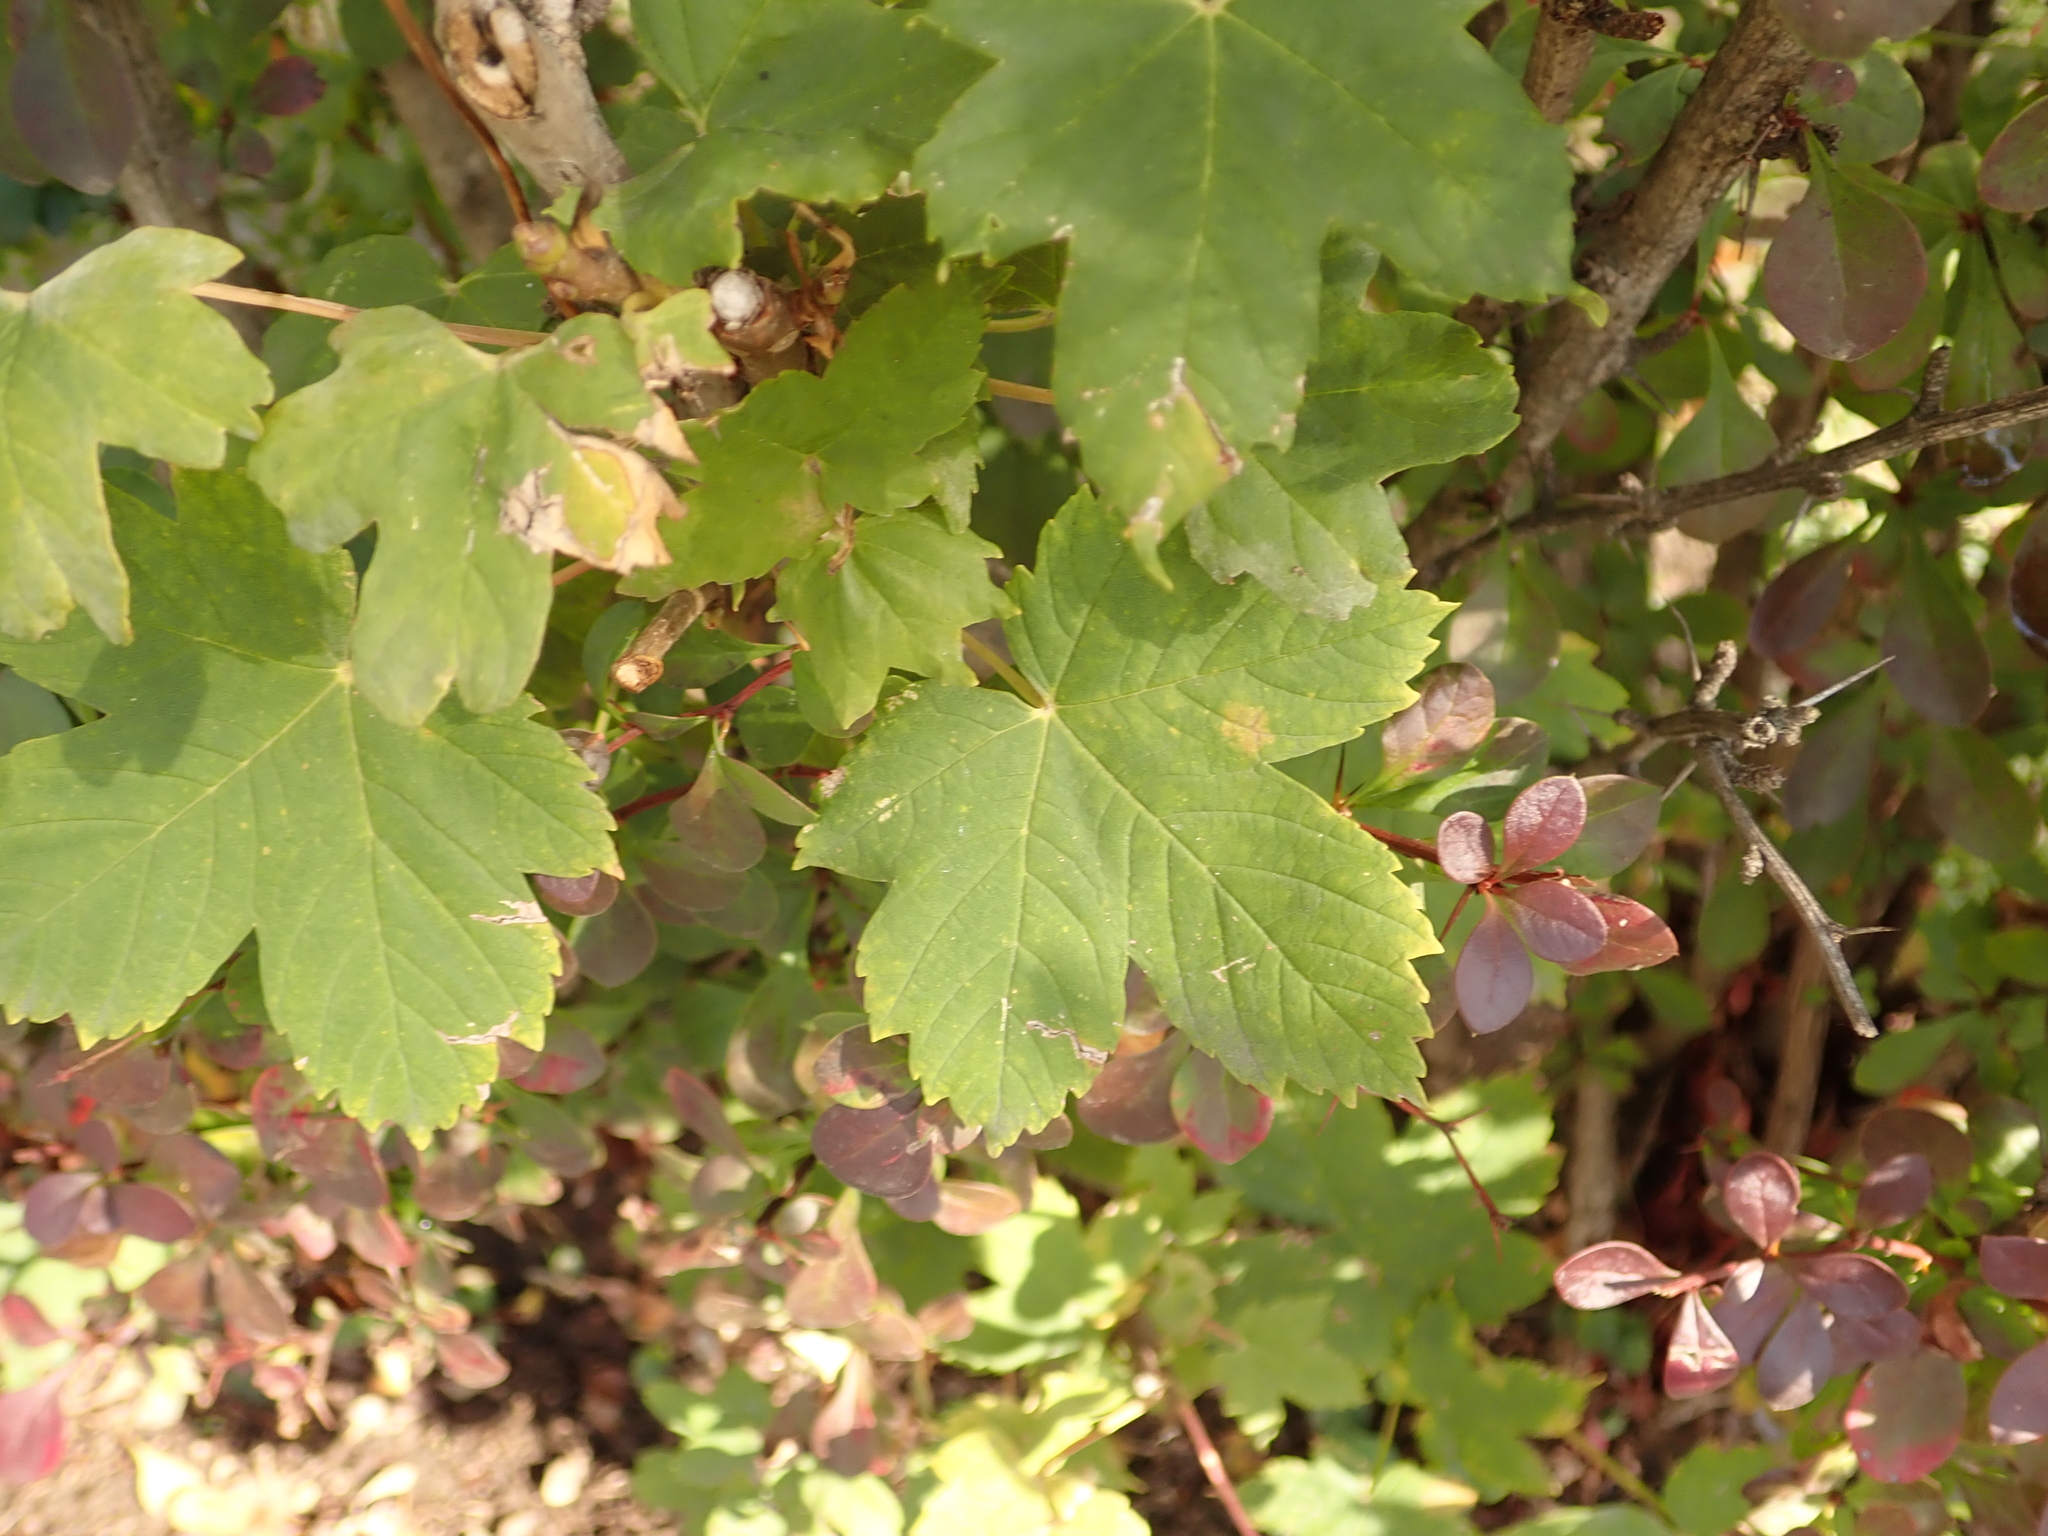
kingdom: Plantae
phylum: Tracheophyta
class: Magnoliopsida
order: Sapindales
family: Sapindaceae
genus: Acer
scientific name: Acer pseudoplatanus
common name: Sycamore
